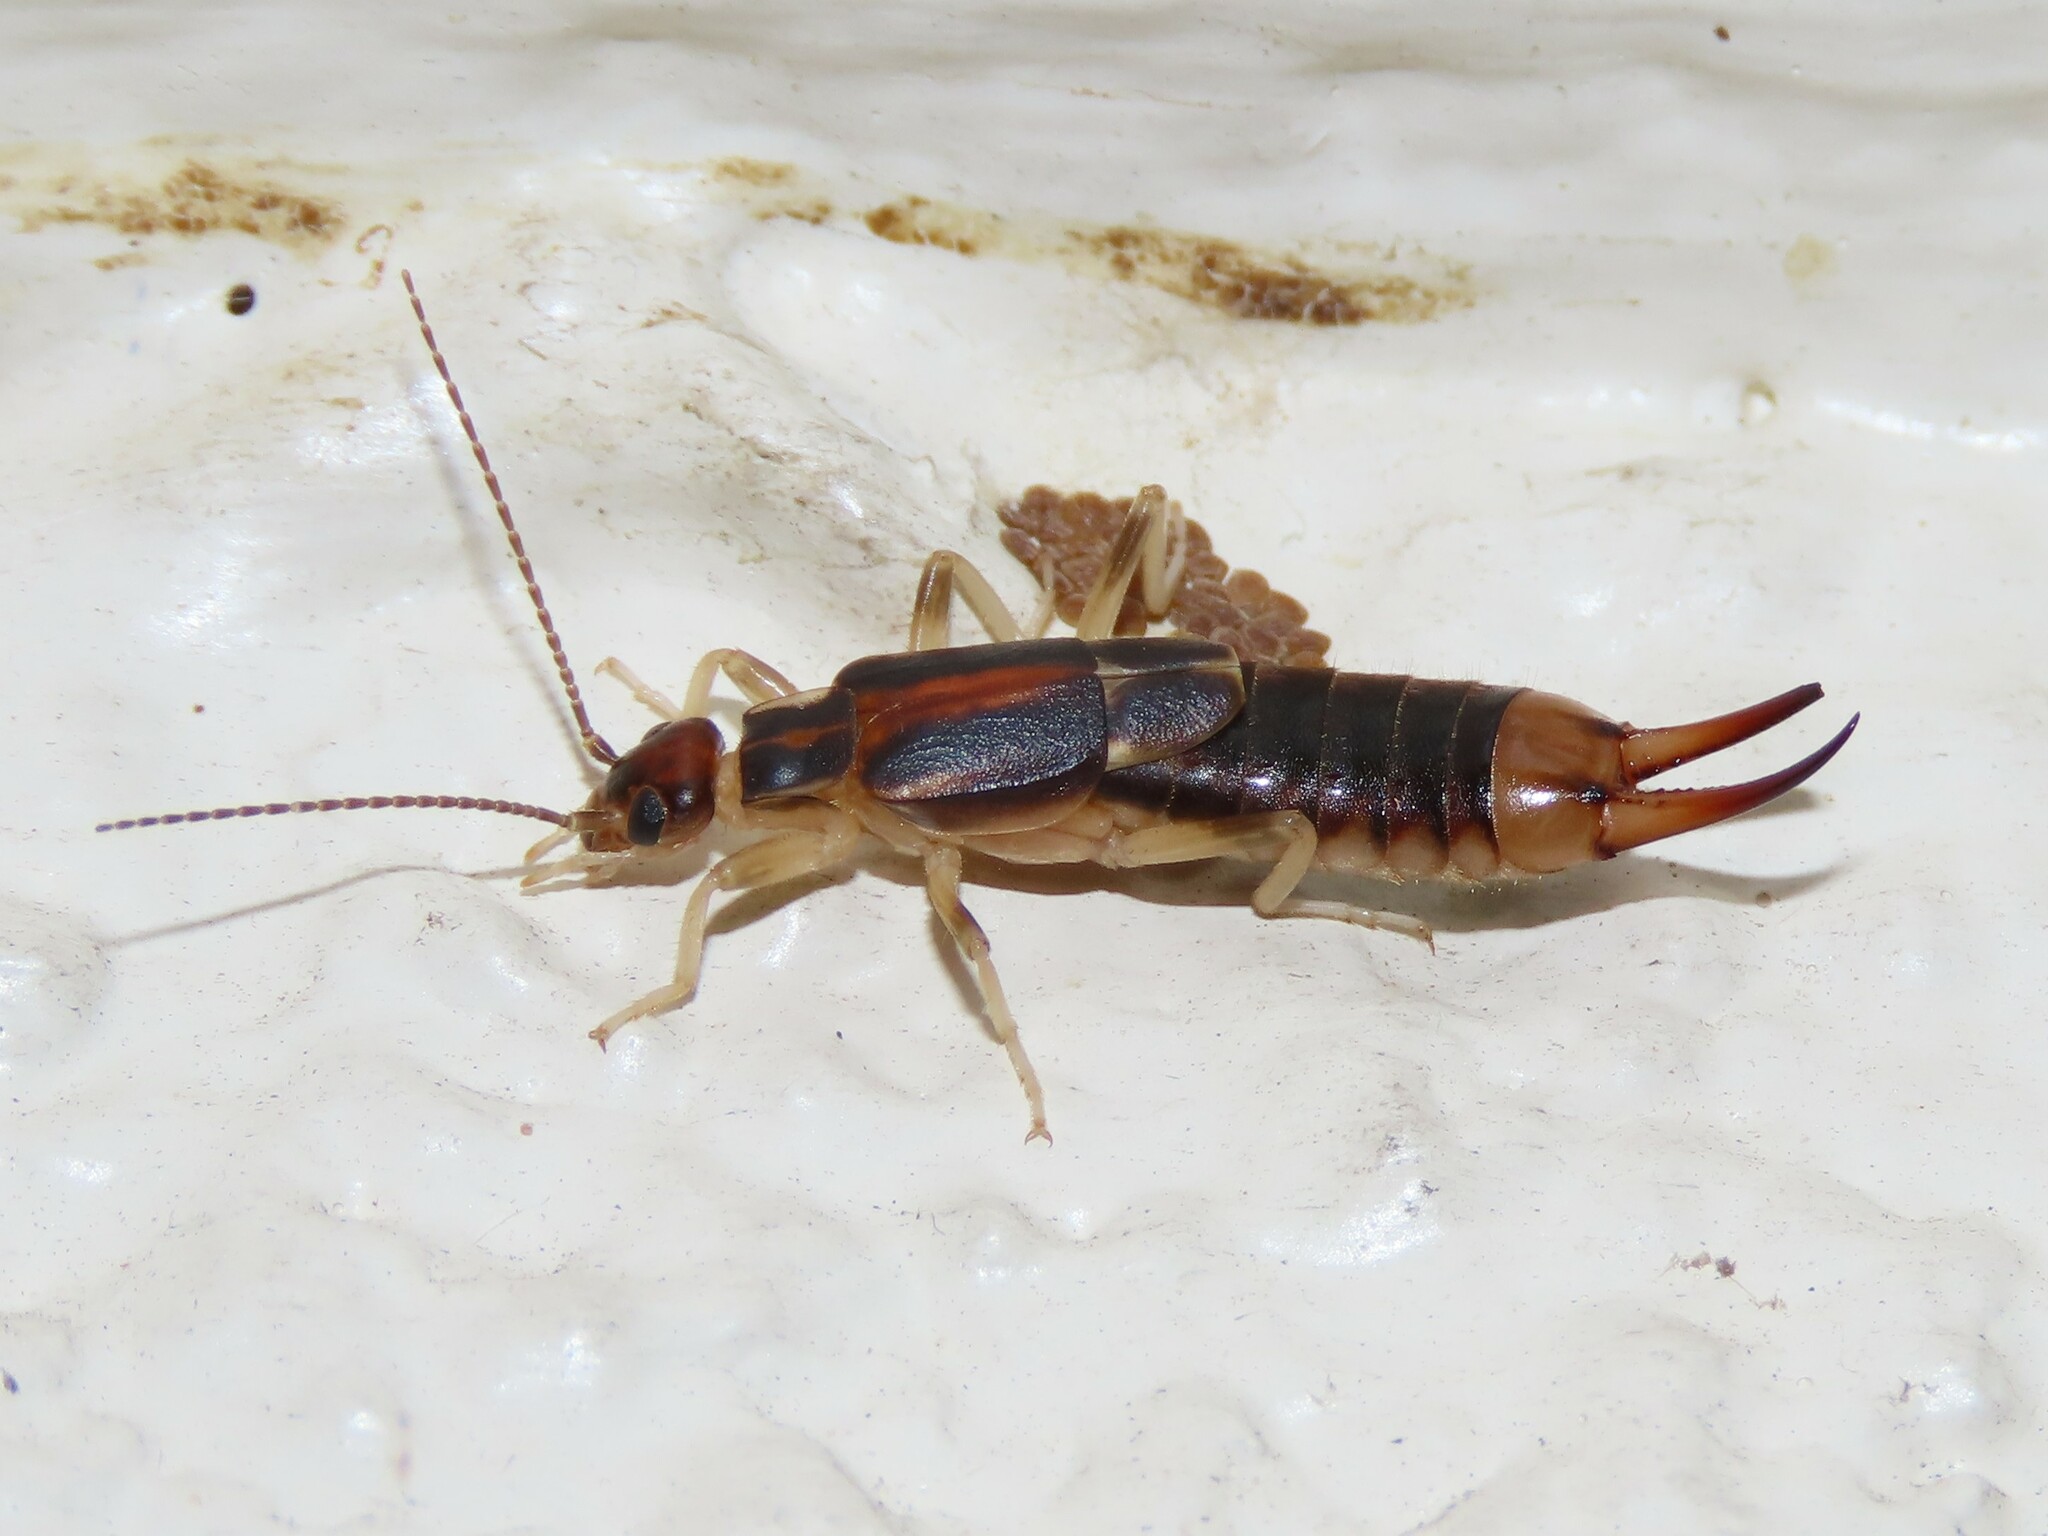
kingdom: Animalia
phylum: Arthropoda
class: Insecta
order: Dermaptera
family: Labiduridae
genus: Labidura
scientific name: Labidura riparia
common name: Striped earwig
